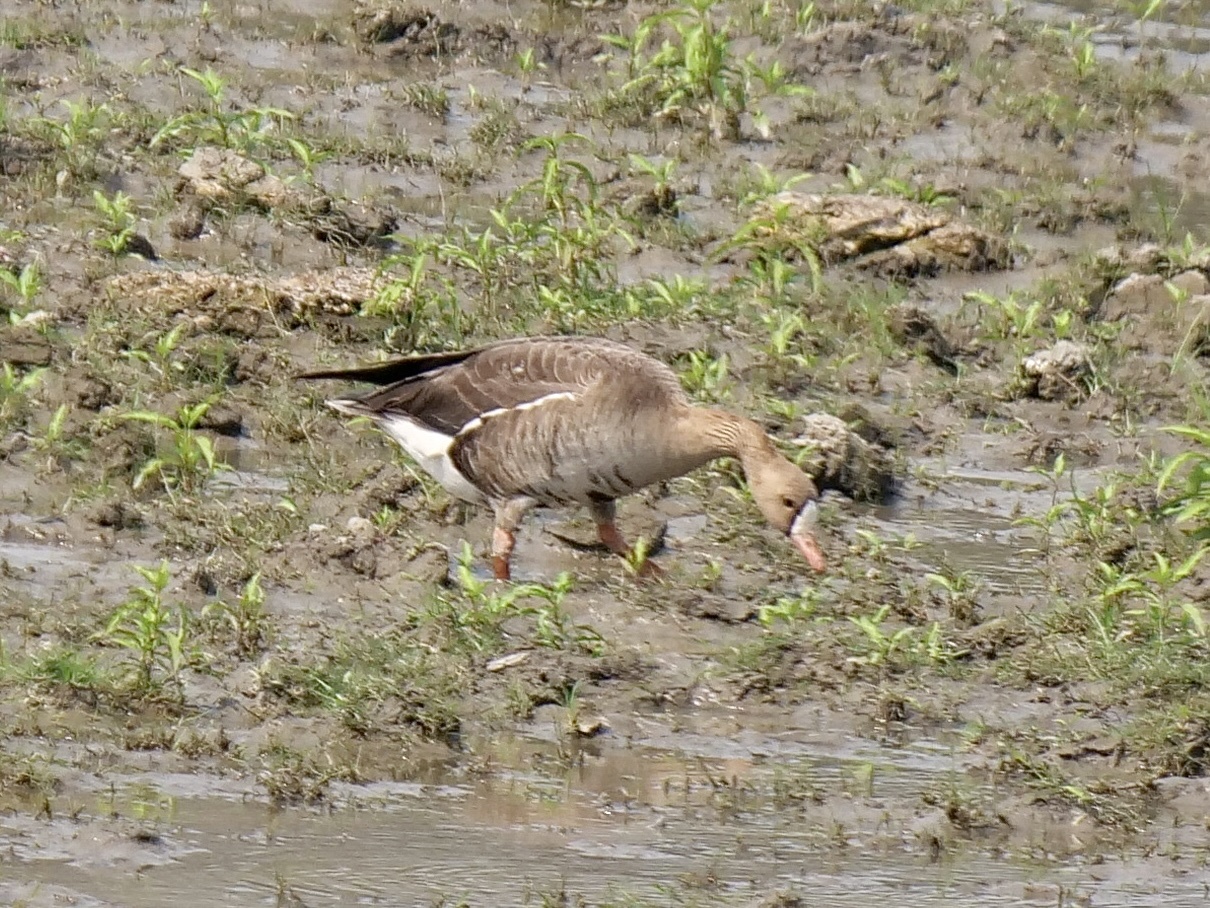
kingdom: Animalia
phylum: Chordata
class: Aves
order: Anseriformes
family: Anatidae
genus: Anser
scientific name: Anser erythropus
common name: Lesser white-fronted goose
